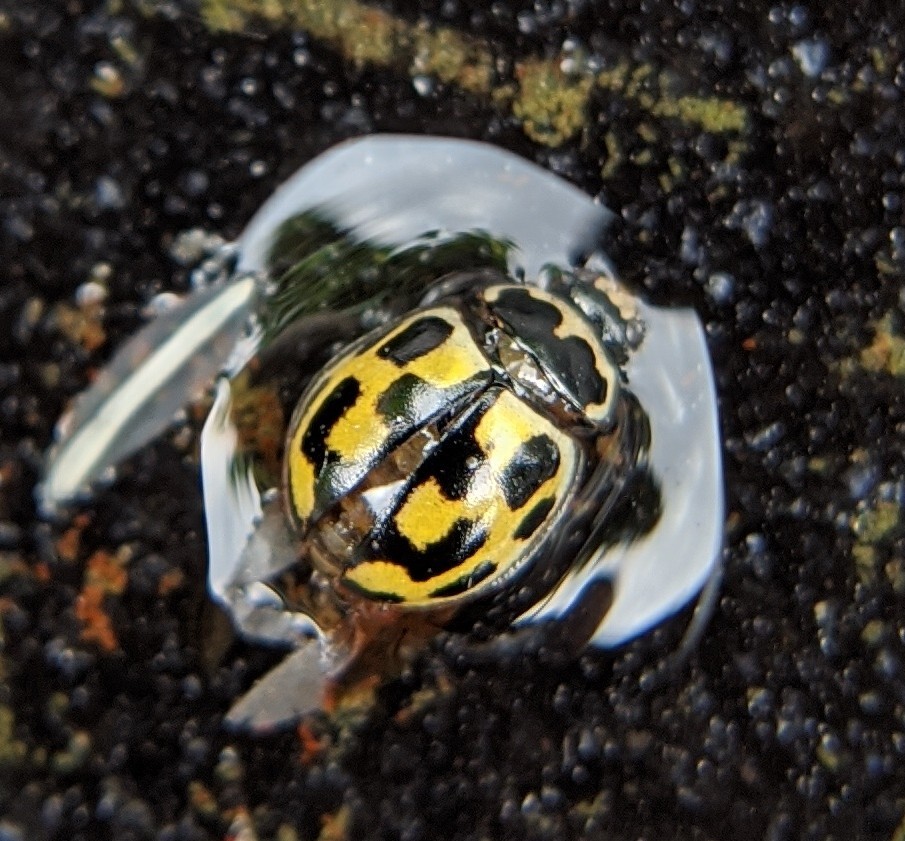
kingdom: Animalia
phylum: Arthropoda
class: Insecta
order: Coleoptera
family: Coccinellidae
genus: Propylaea
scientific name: Propylaea quatuordecimpunctata
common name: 14-spotted ladybird beetle
